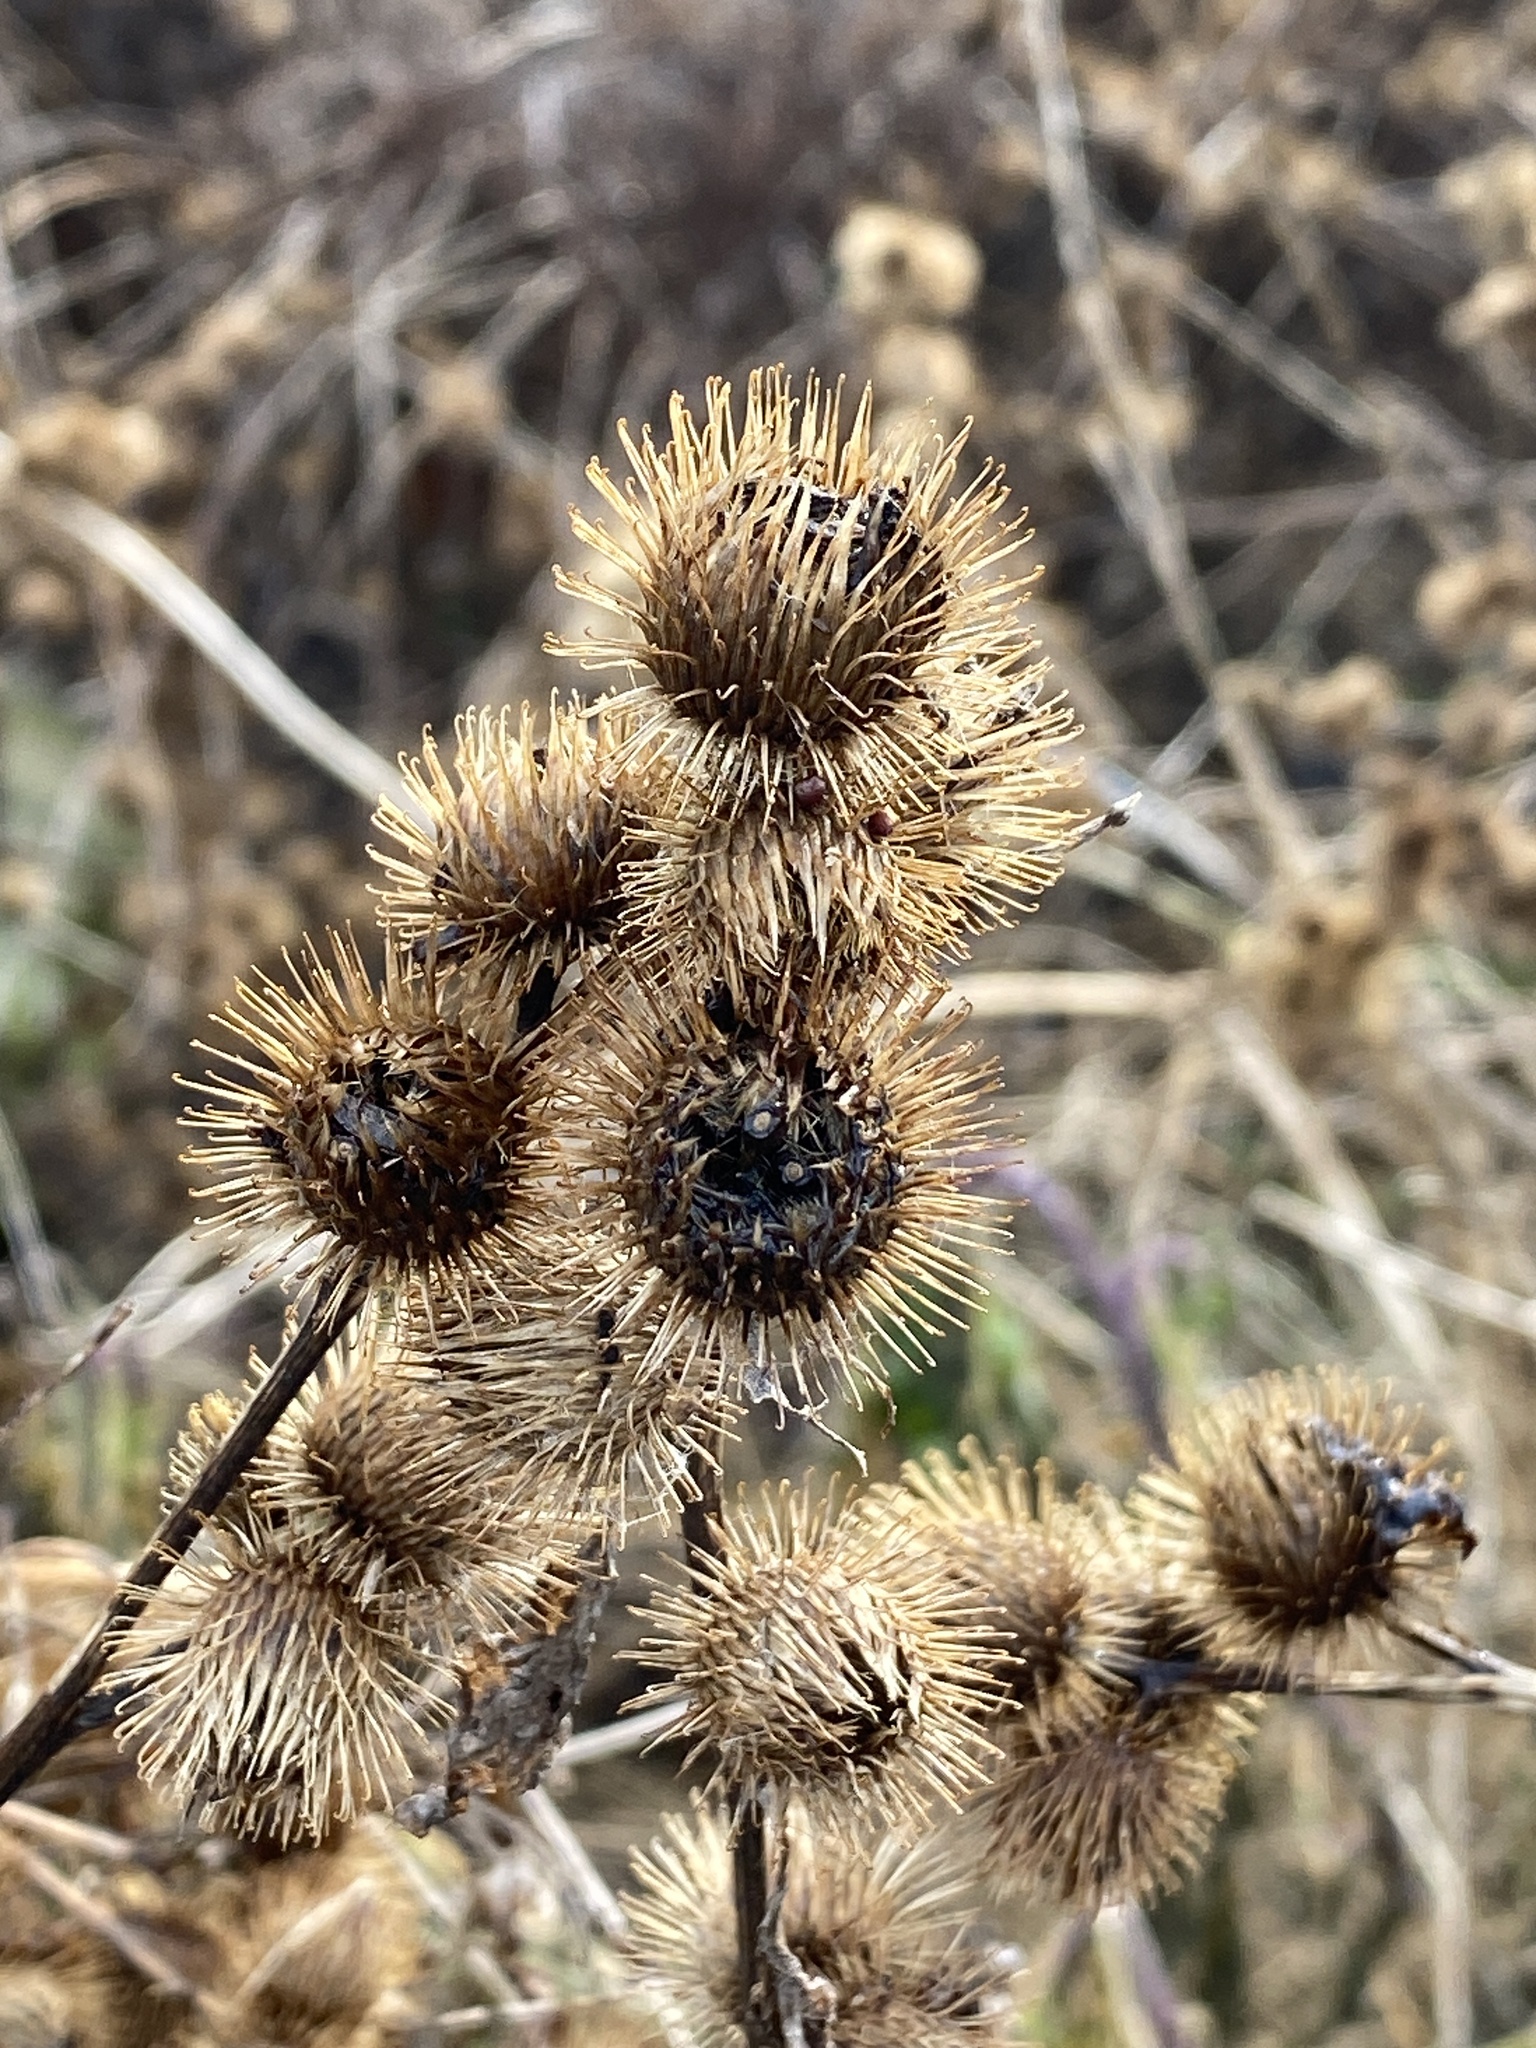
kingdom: Plantae
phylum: Tracheophyta
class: Magnoliopsida
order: Asterales
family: Asteraceae
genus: Arctium
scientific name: Arctium minus
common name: Lesser burdock
